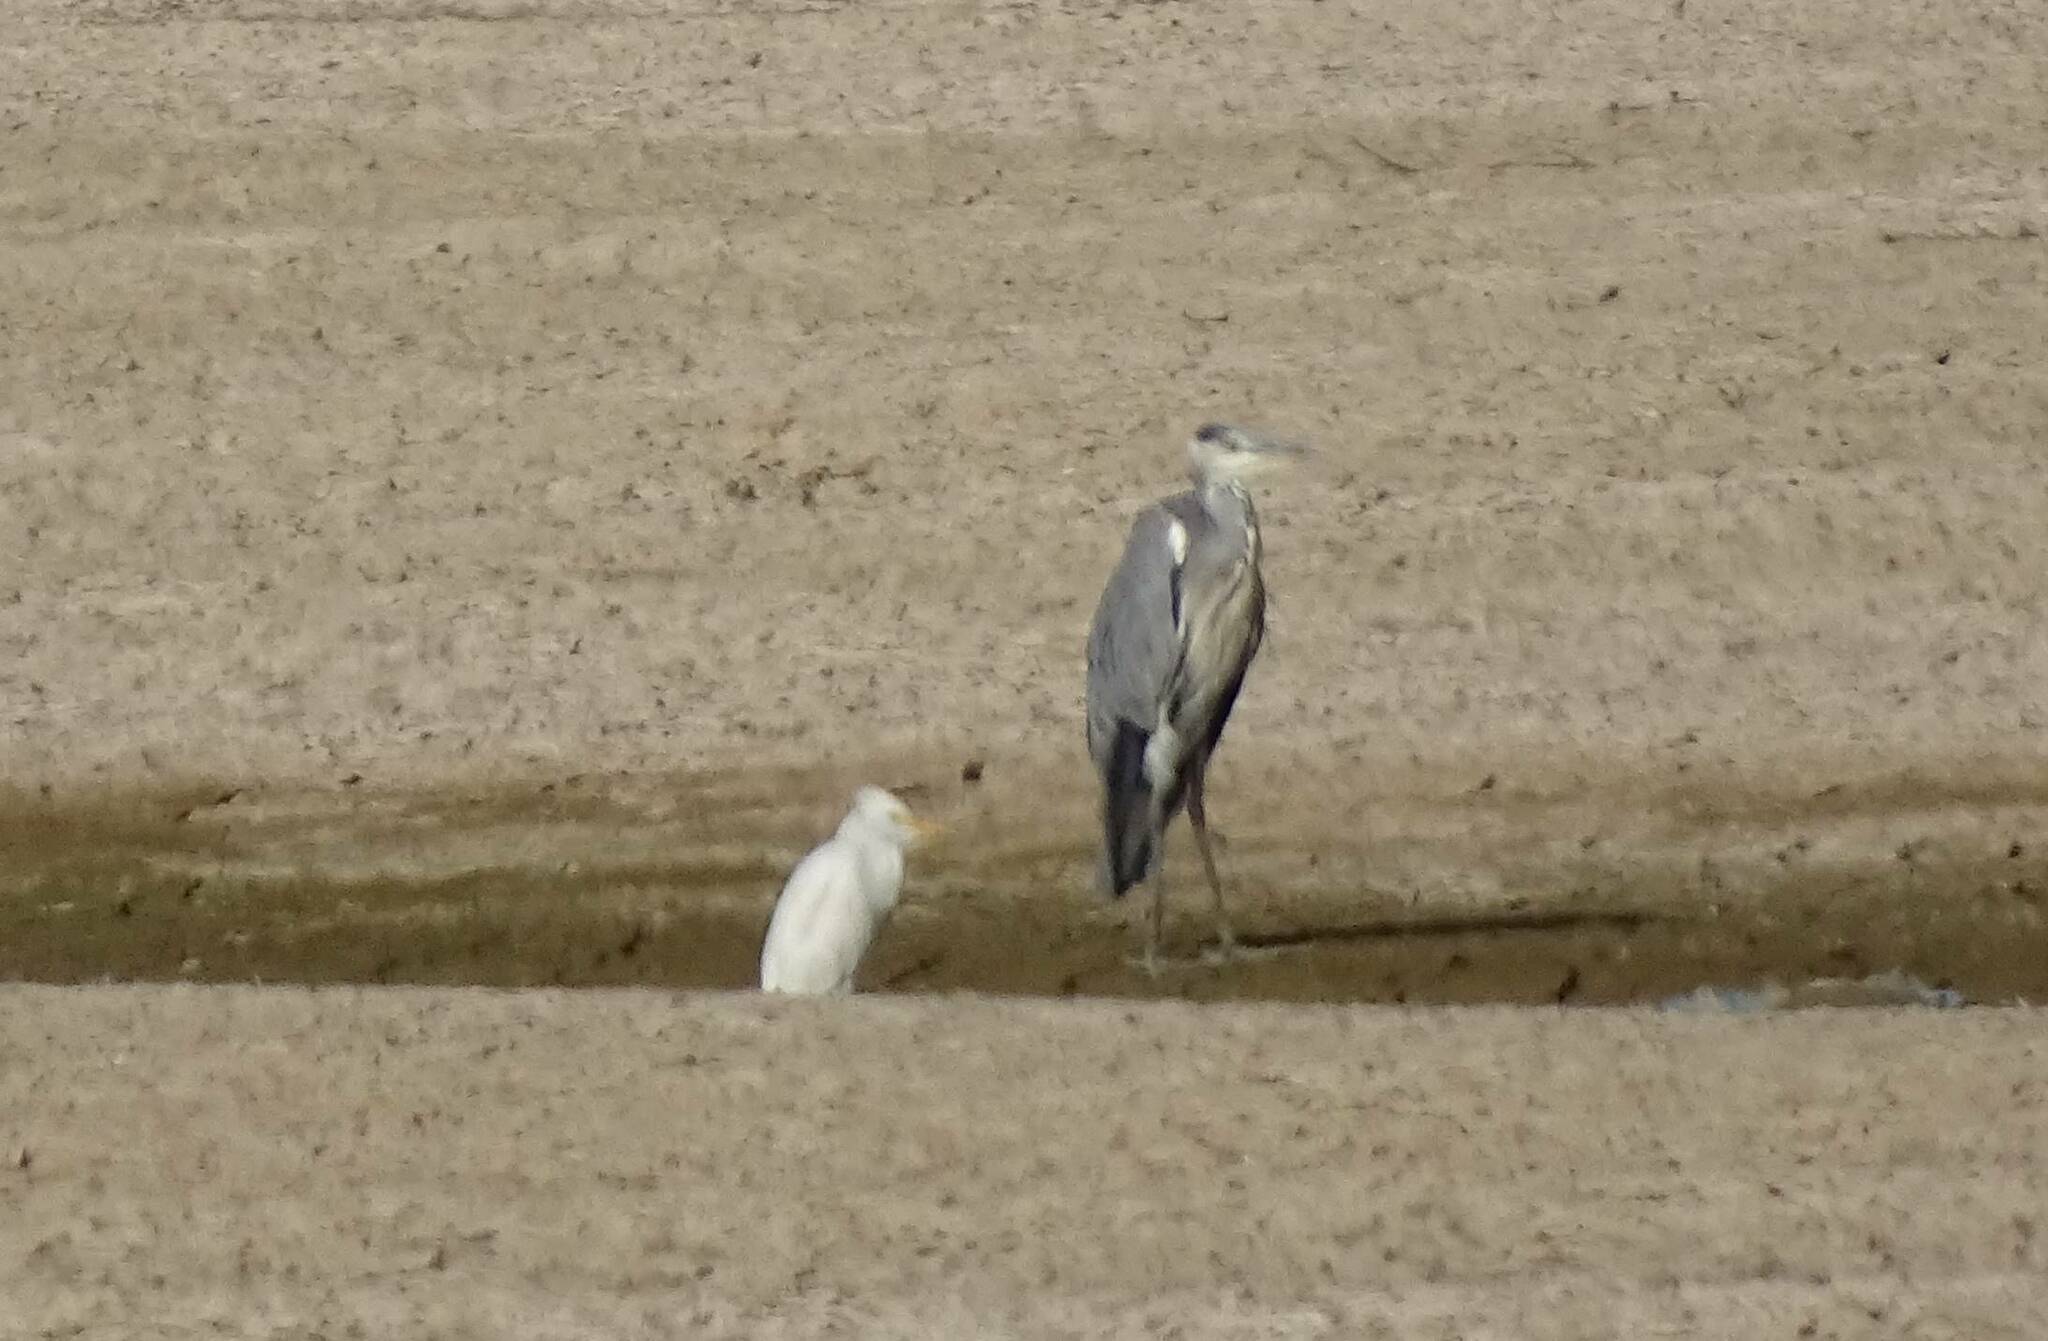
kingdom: Animalia
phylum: Chordata
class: Aves
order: Pelecaniformes
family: Ardeidae
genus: Ardea
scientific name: Ardea cinerea
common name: Grey heron
